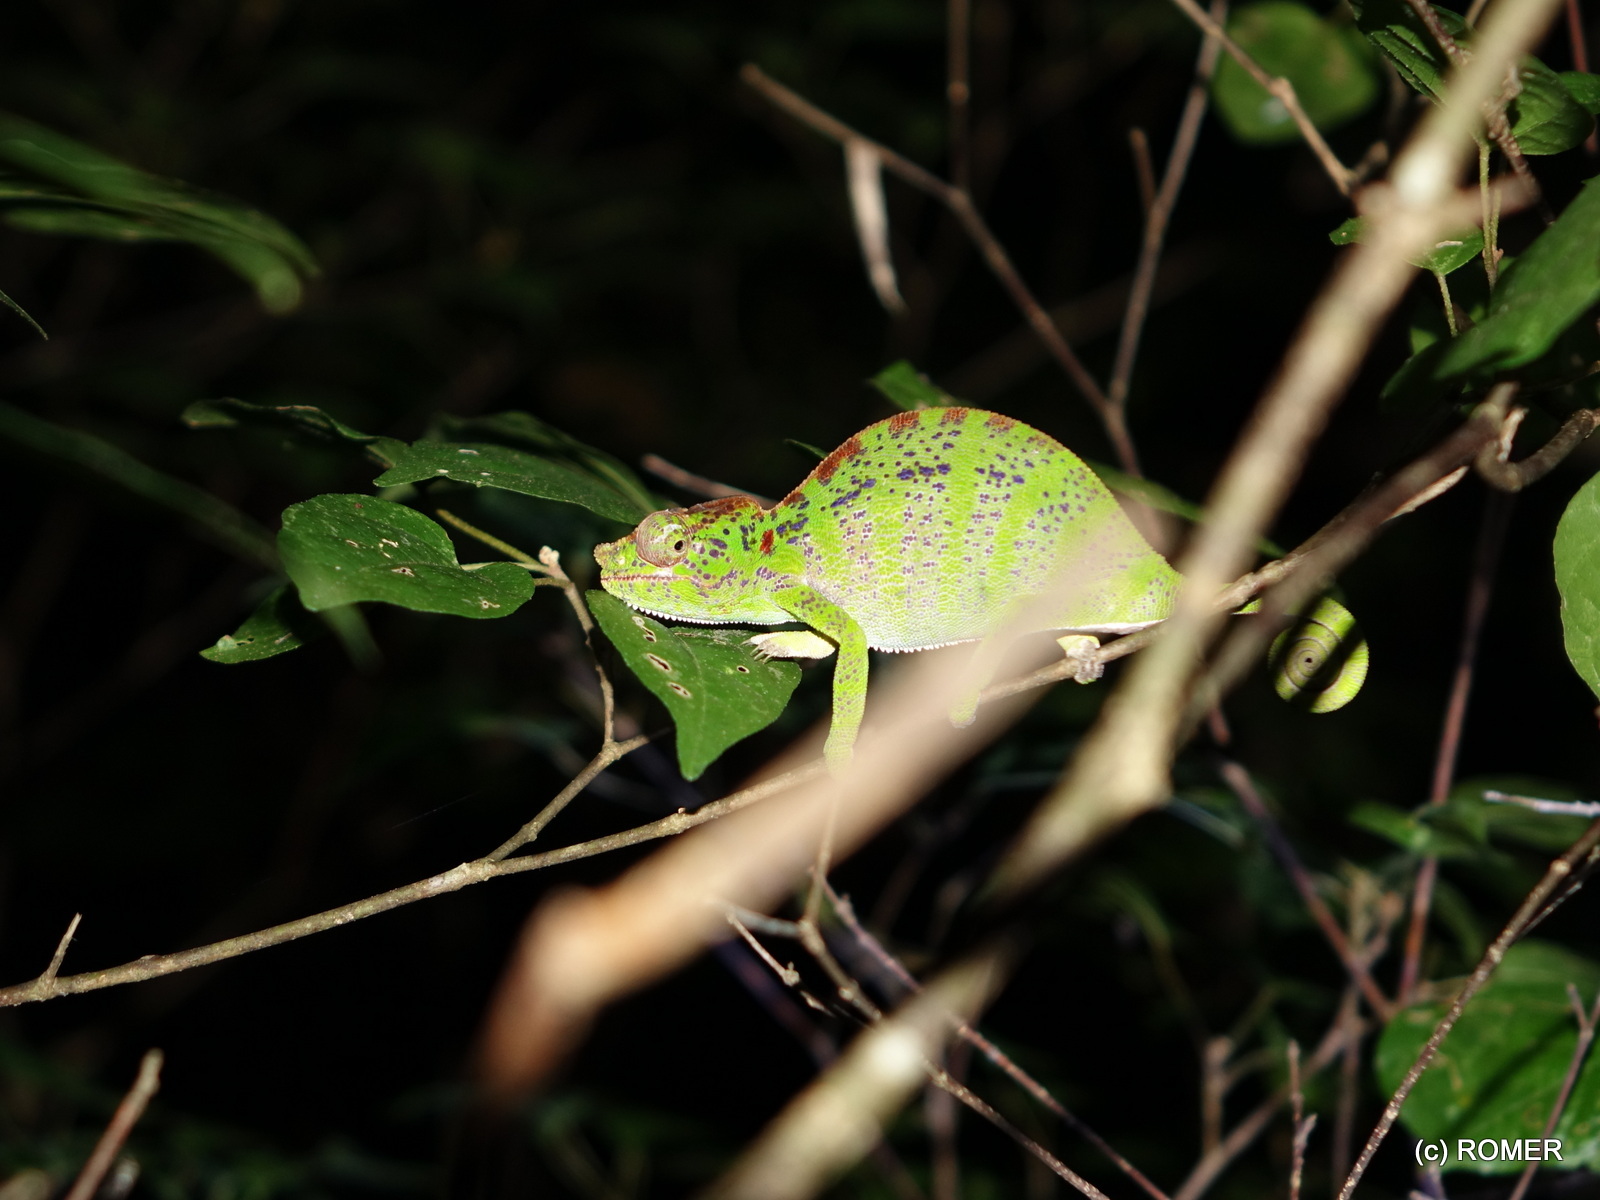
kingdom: Animalia
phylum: Chordata
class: Squamata
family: Chamaeleonidae
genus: Furcifer
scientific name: Furcifer labordi
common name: Laborde's chameleon
